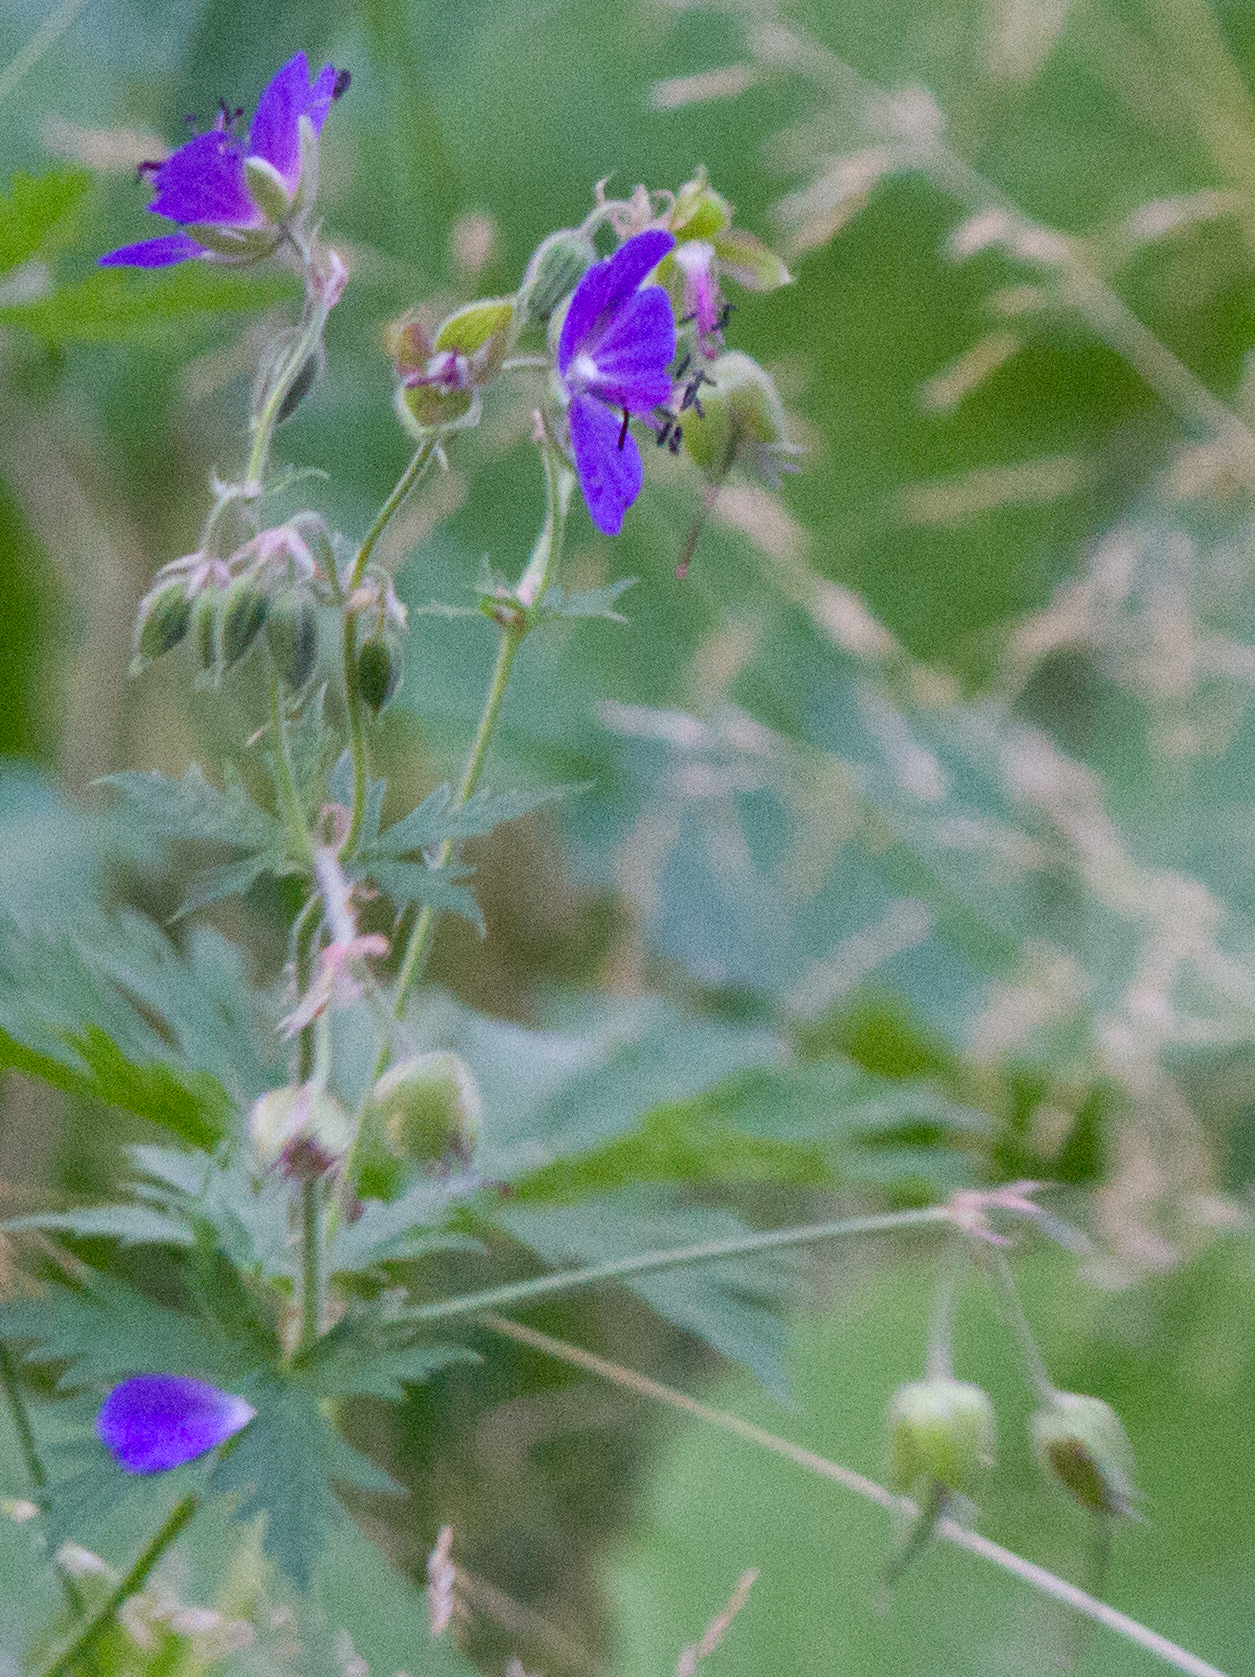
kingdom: Plantae
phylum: Tracheophyta
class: Magnoliopsida
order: Geraniales
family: Geraniaceae
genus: Geranium
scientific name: Geranium pratense
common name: Meadow crane's-bill
